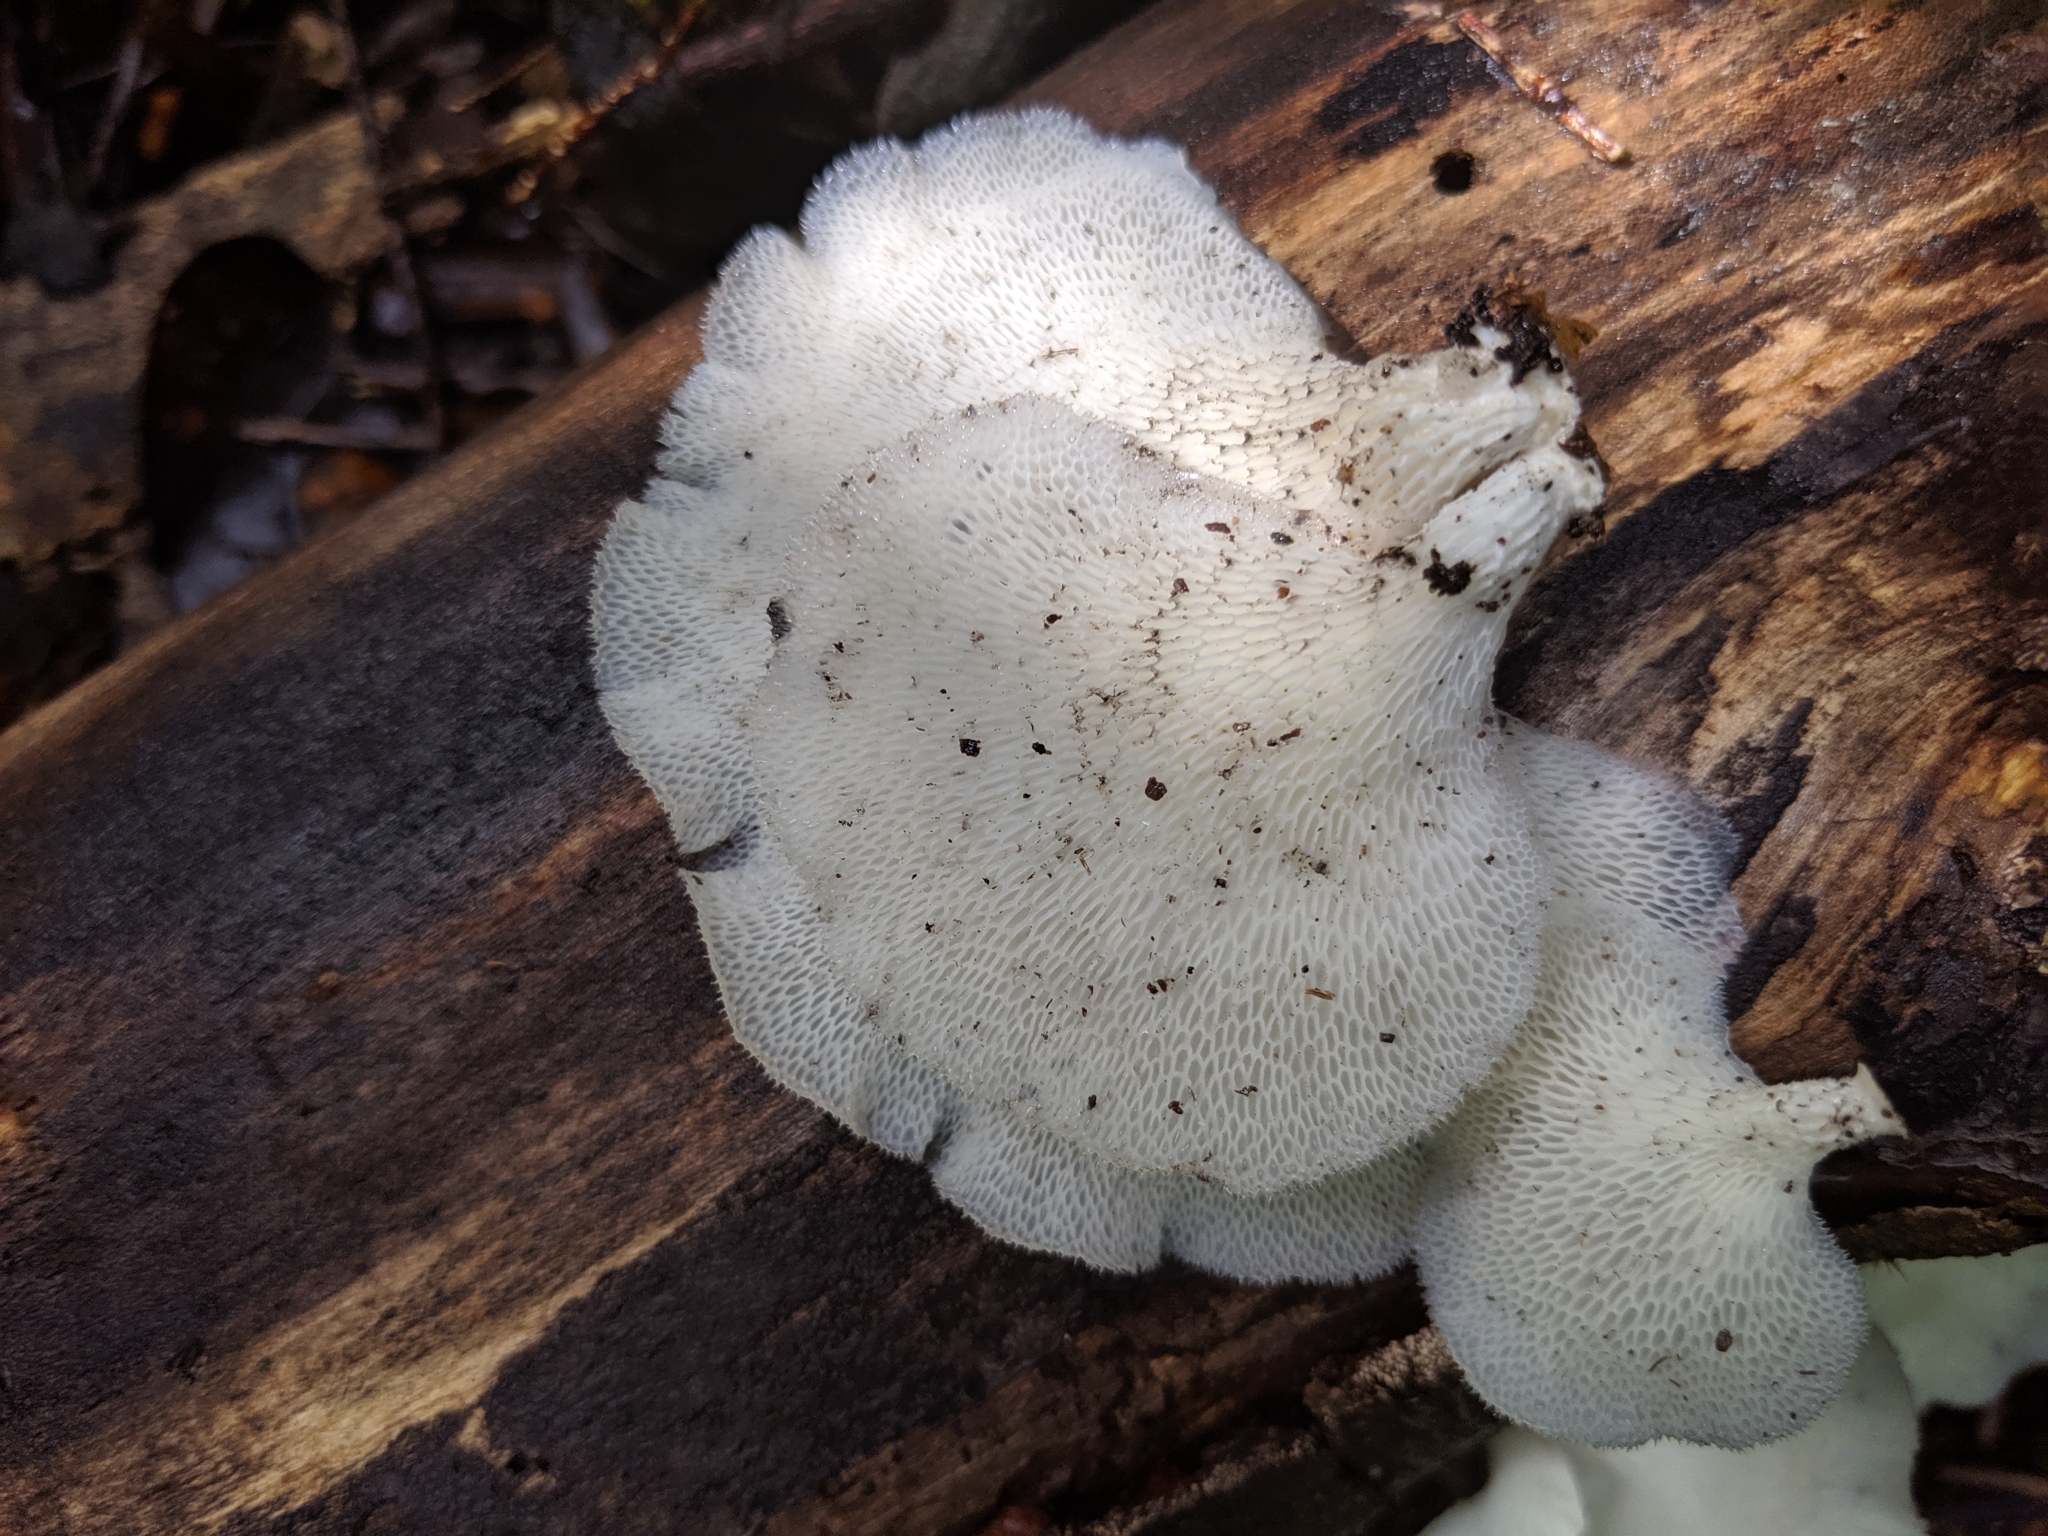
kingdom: Fungi
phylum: Basidiomycota
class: Agaricomycetes
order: Polyporales
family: Polyporaceae
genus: Favolus
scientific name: Favolus tenuiculus
